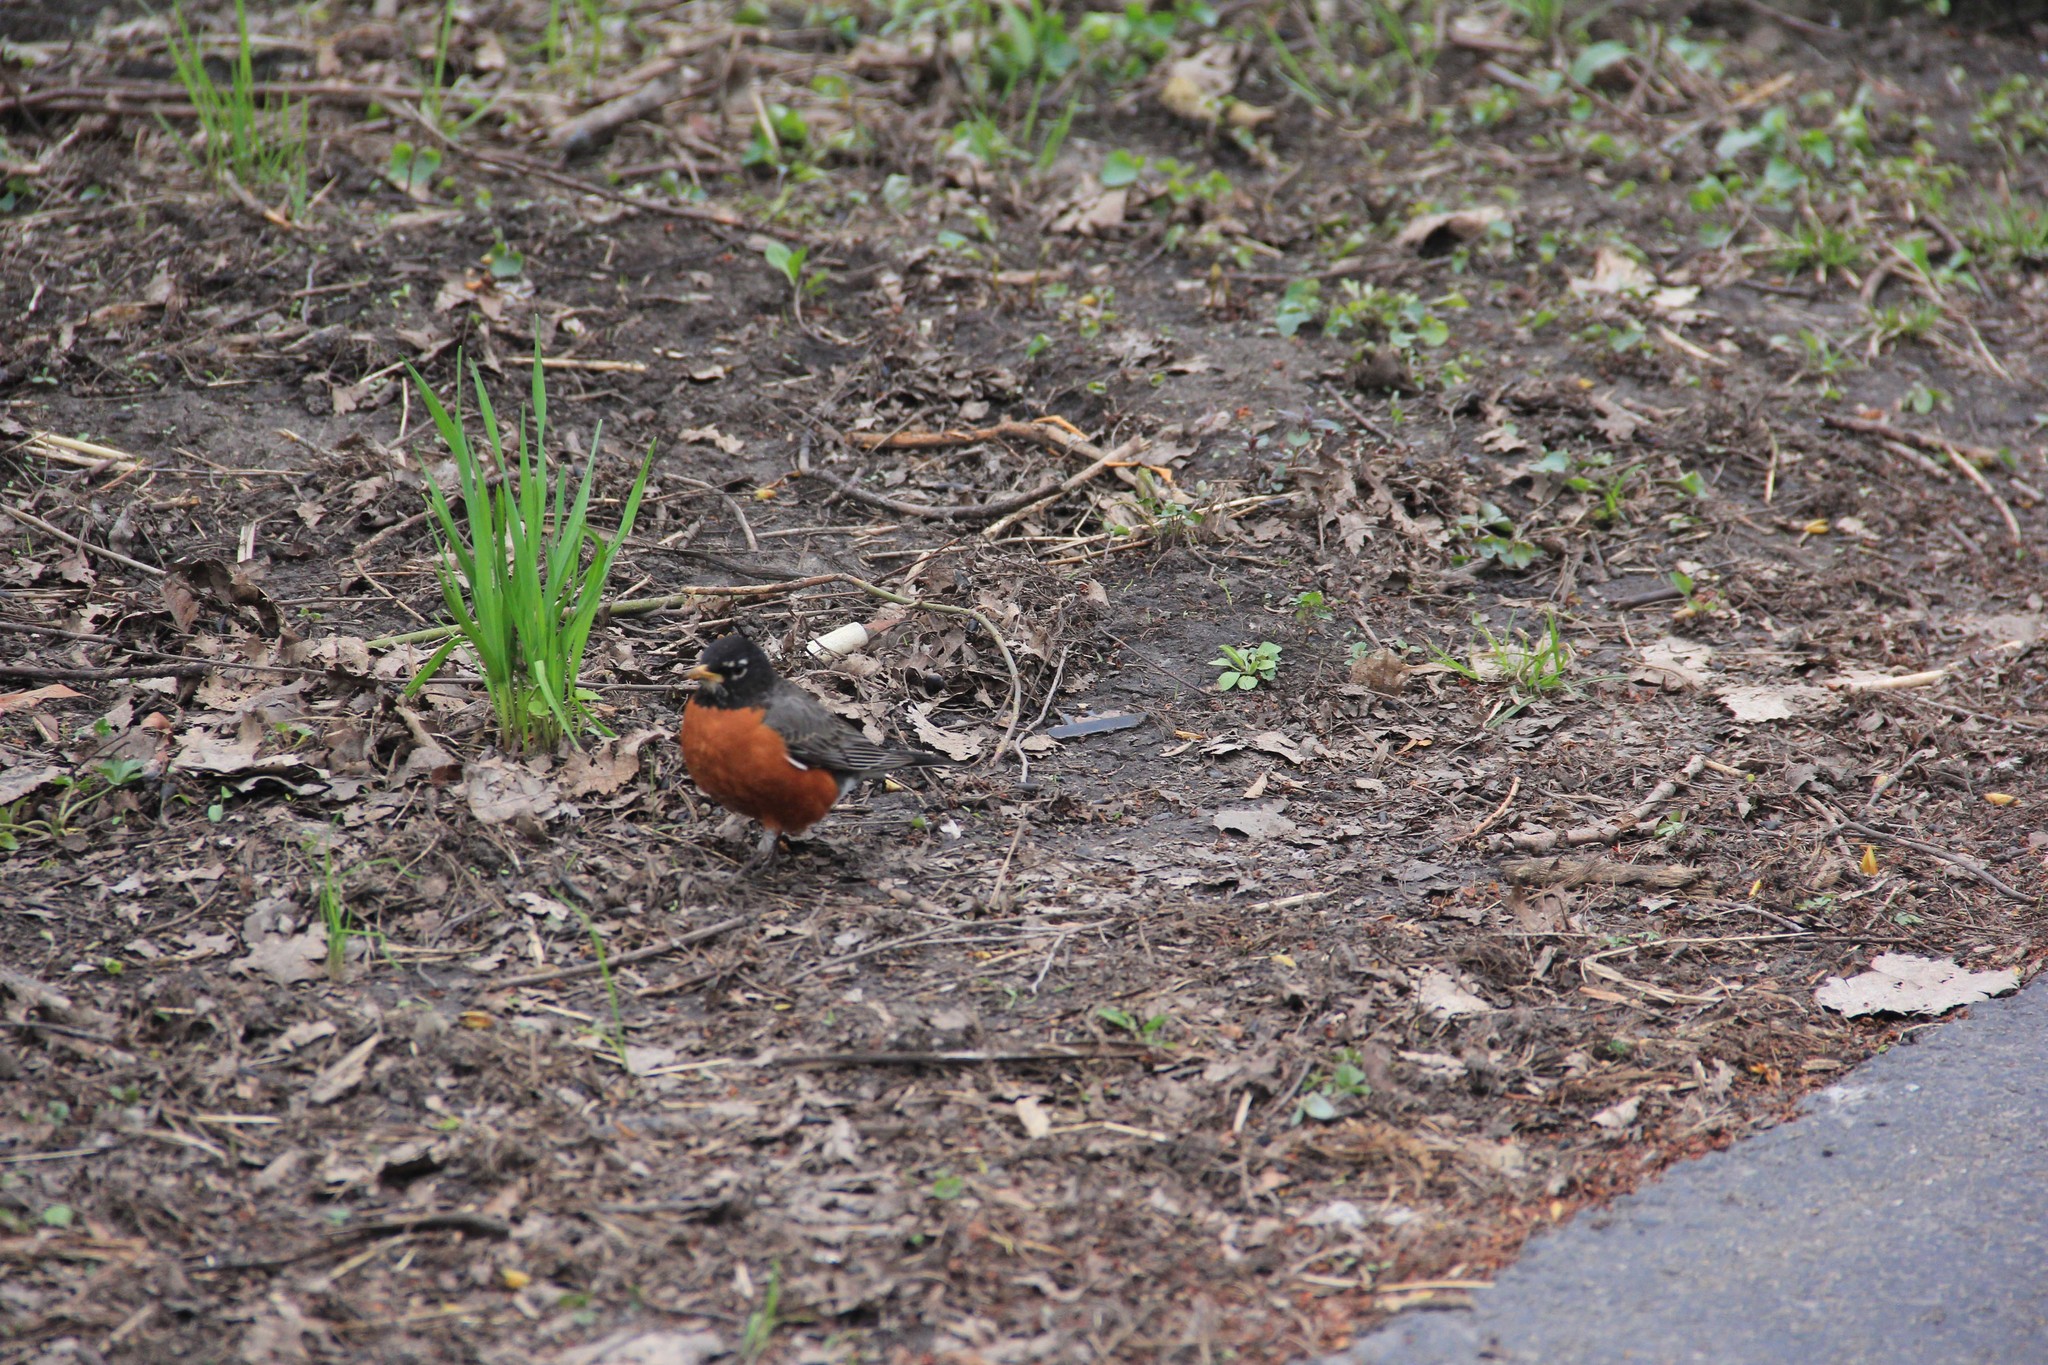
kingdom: Animalia
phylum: Chordata
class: Aves
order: Passeriformes
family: Turdidae
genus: Turdus
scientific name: Turdus migratorius
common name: American robin
